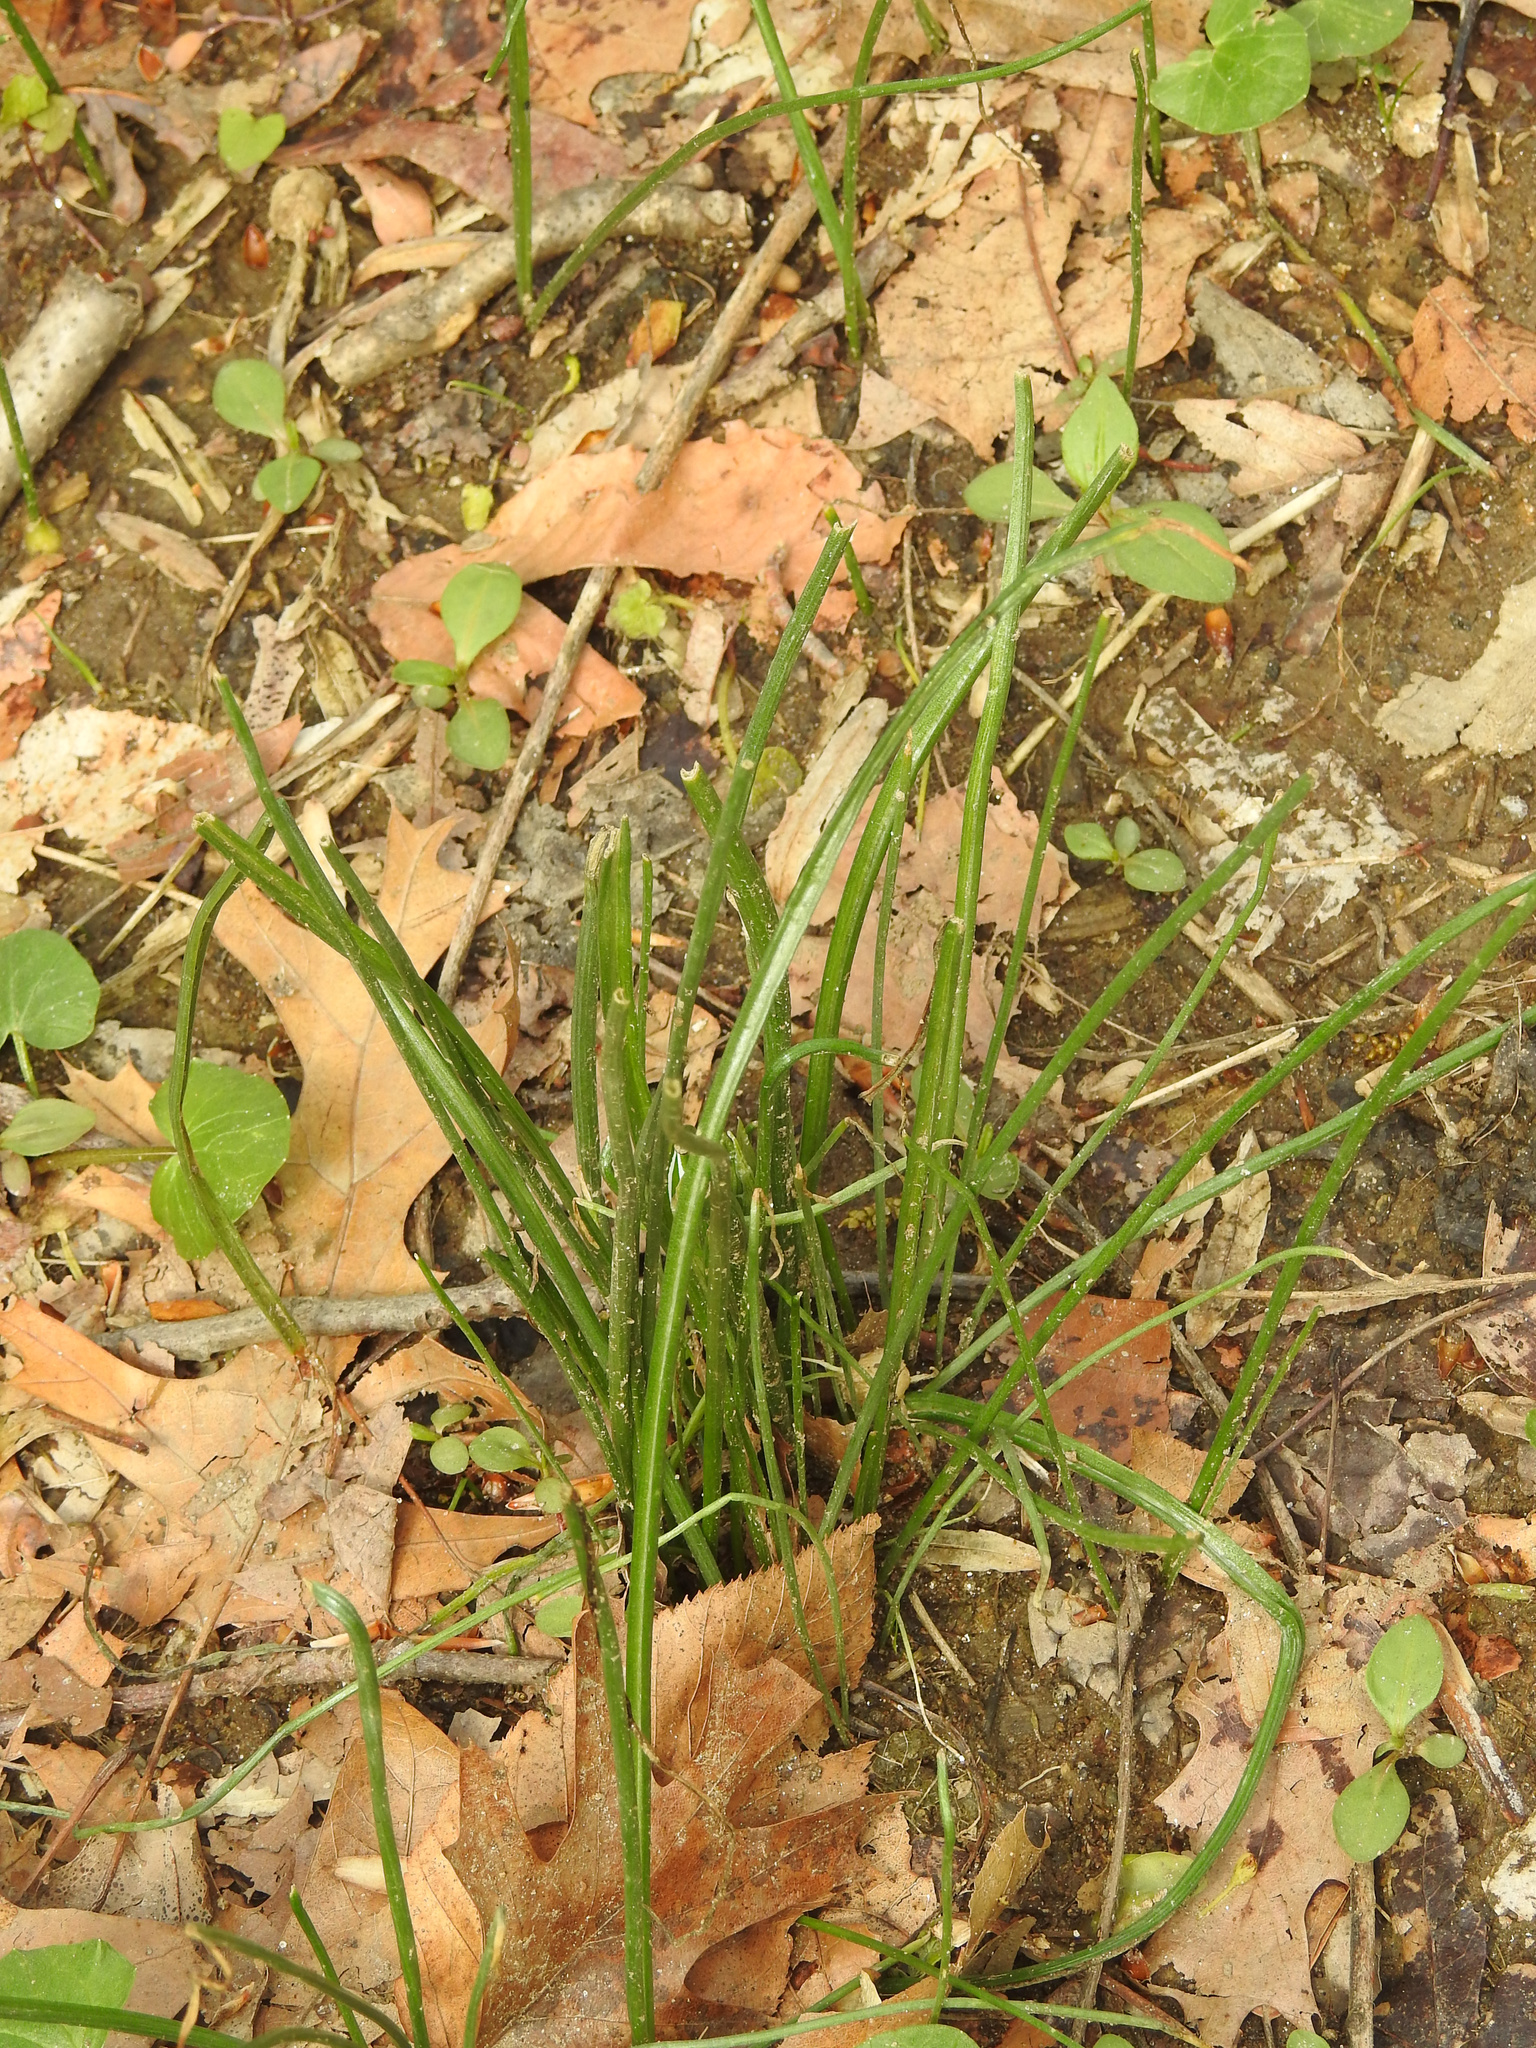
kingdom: Plantae
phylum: Tracheophyta
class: Liliopsida
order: Asparagales
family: Asparagaceae
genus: Ornithogalum
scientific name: Ornithogalum umbellatum
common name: Garden star-of-bethlehem
